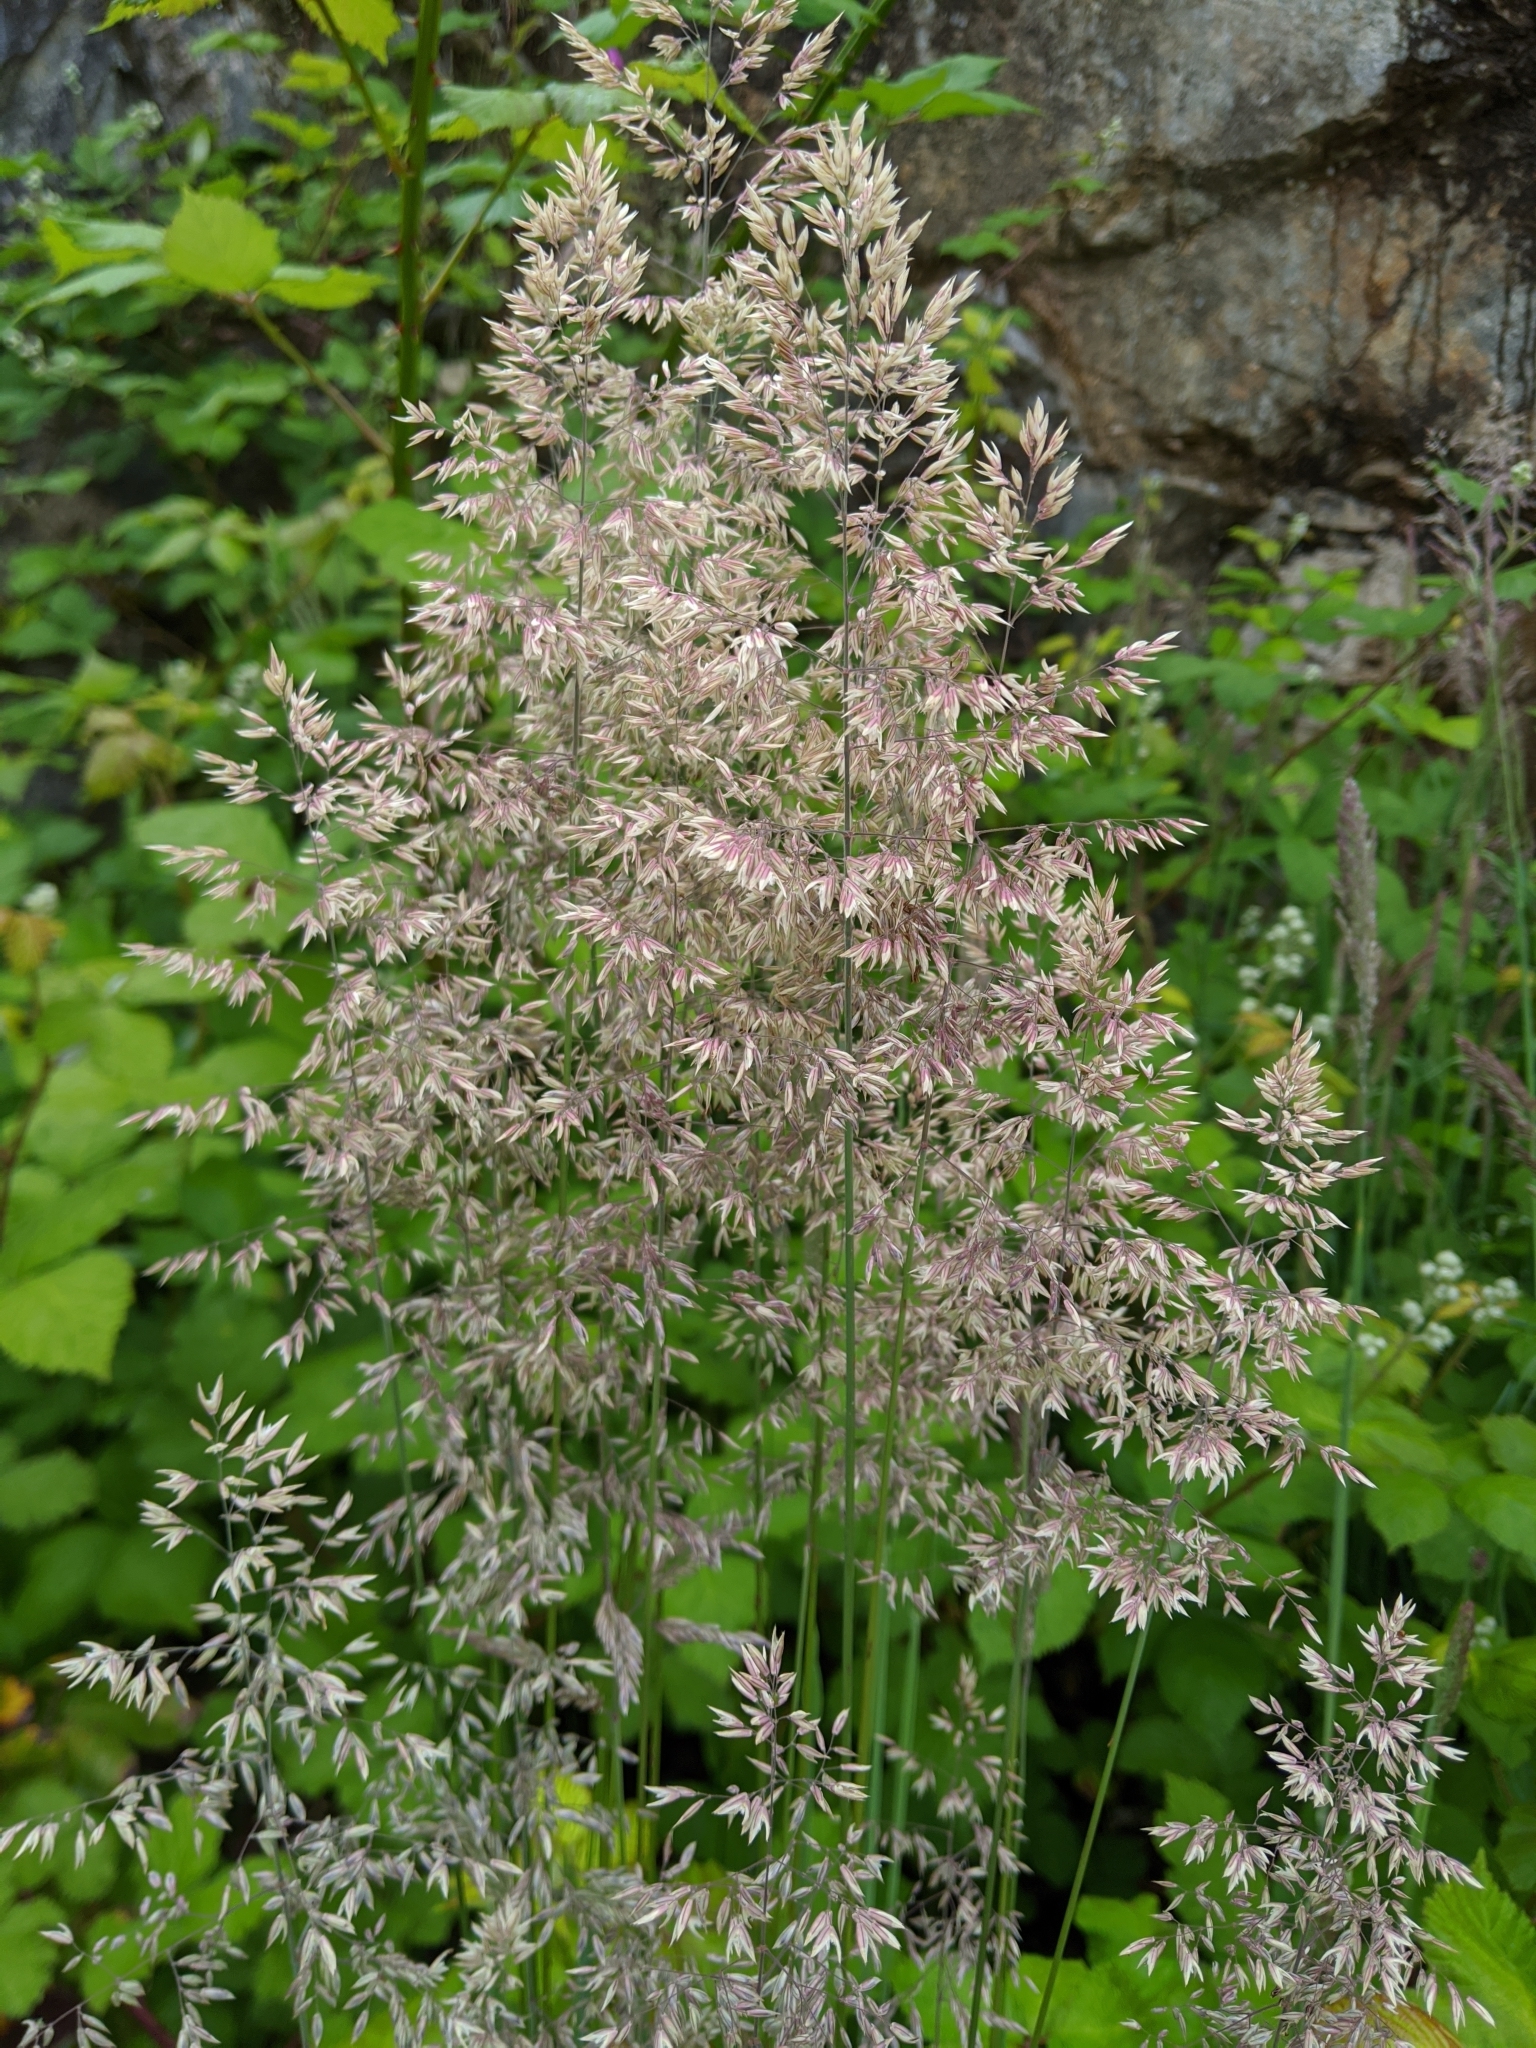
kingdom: Plantae
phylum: Tracheophyta
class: Liliopsida
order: Poales
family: Poaceae
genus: Holcus
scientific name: Holcus lanatus
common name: Yorkshire-fog
